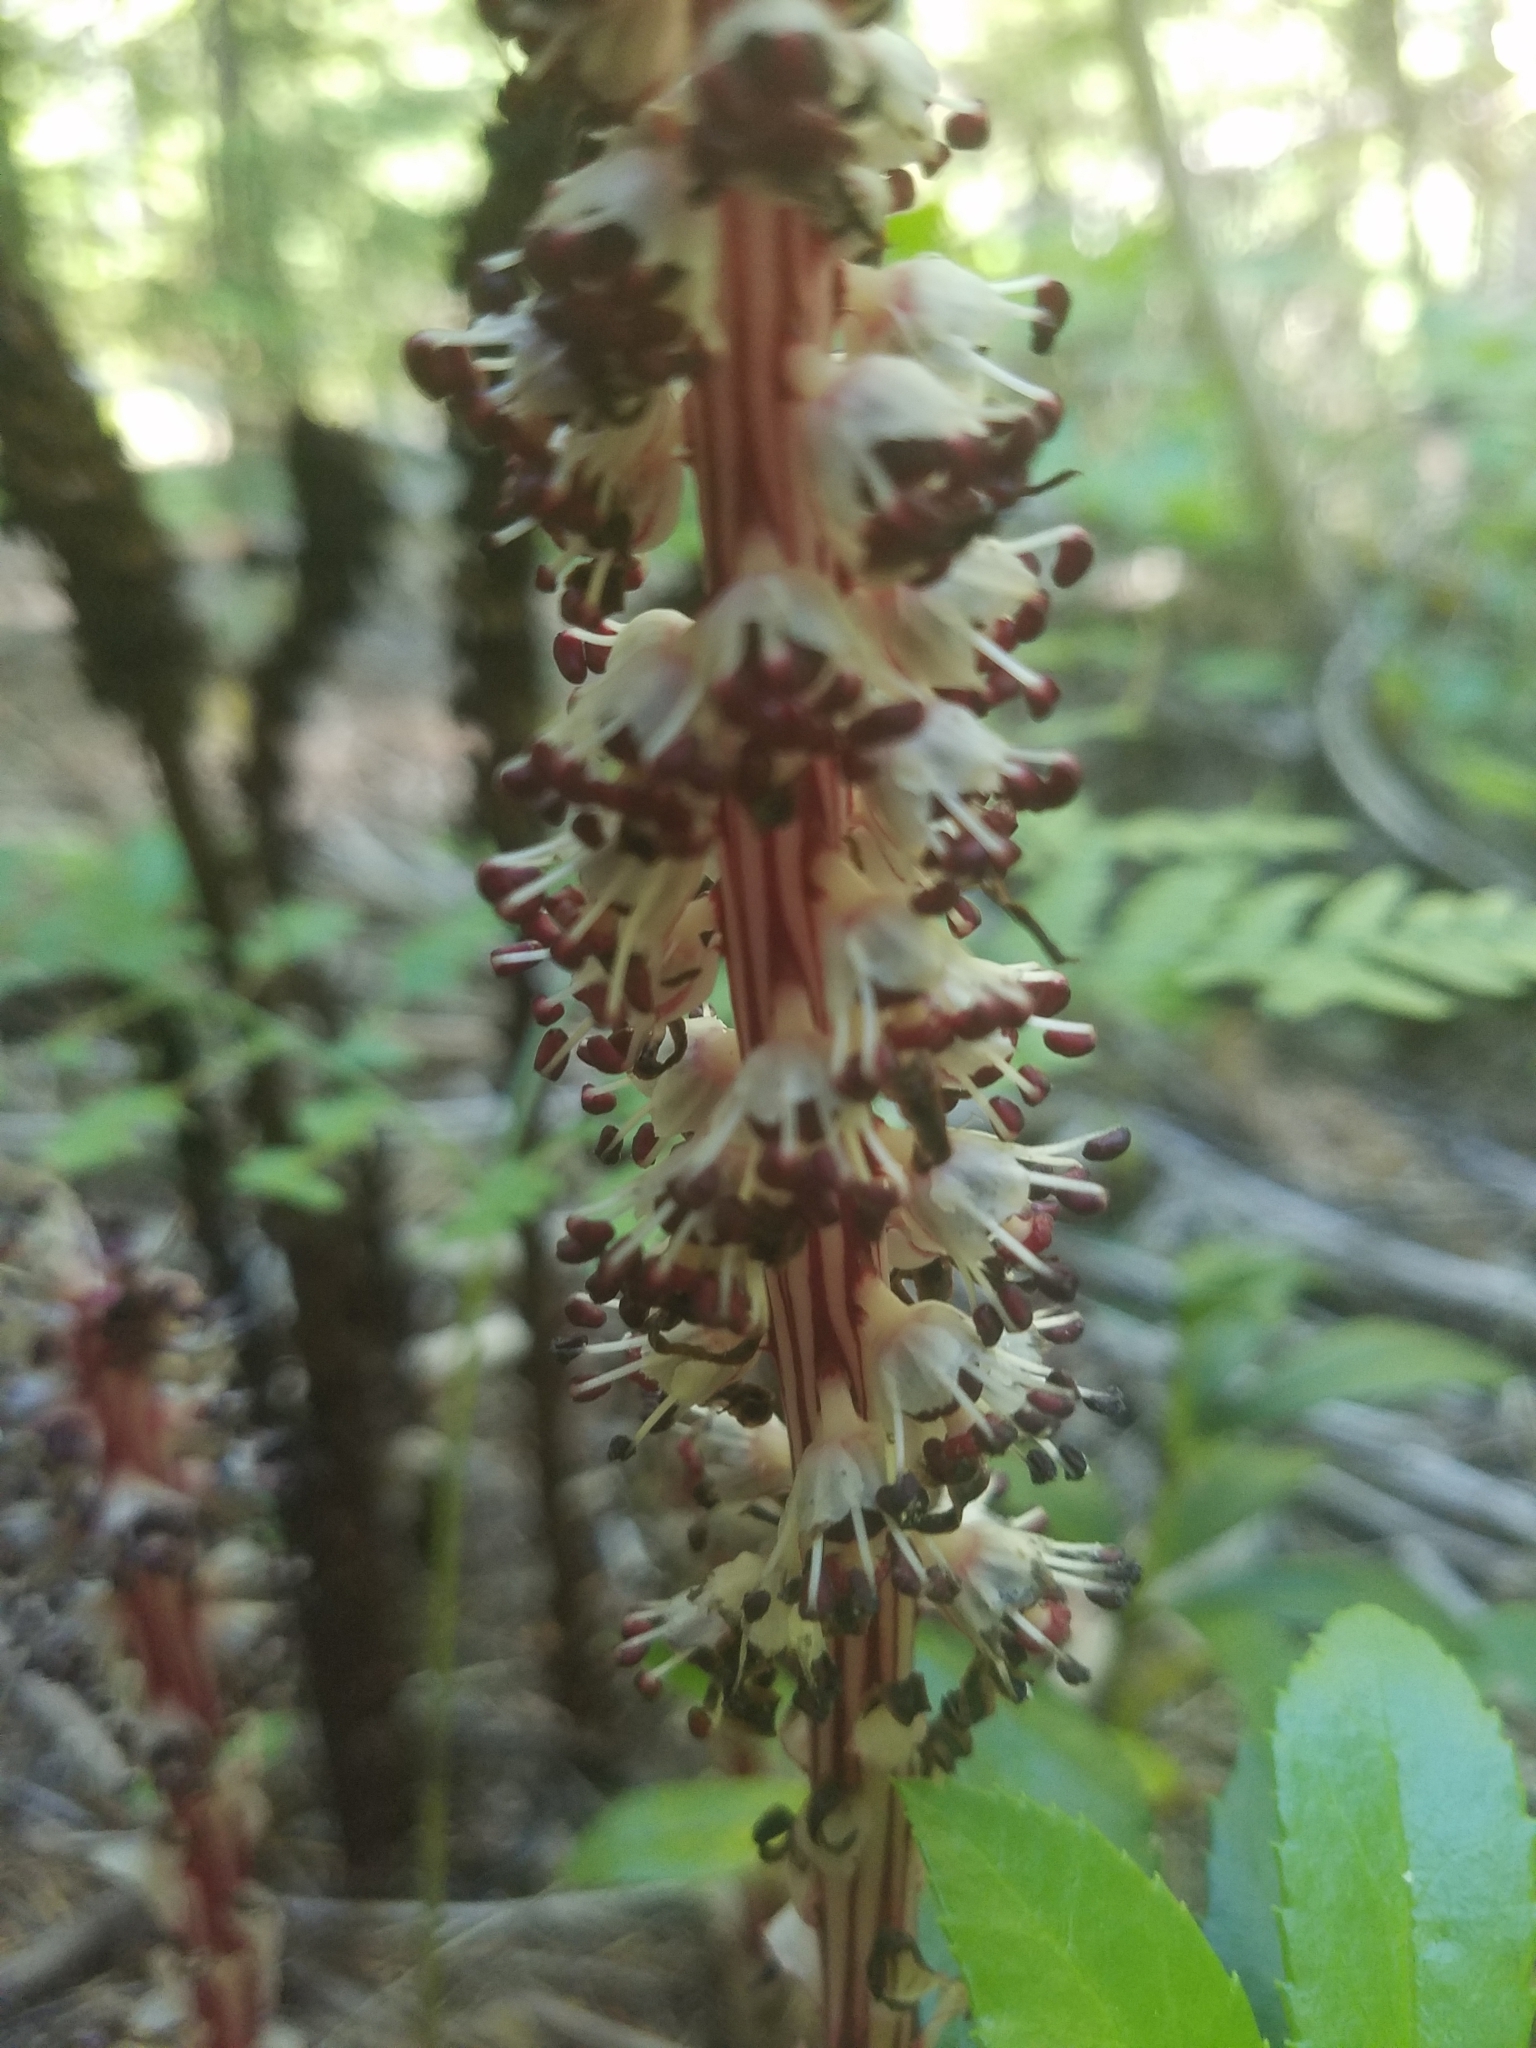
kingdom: Plantae
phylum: Tracheophyta
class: Magnoliopsida
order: Ericales
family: Ericaceae
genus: Allotropa
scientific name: Allotropa virgata
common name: Candy-striped allotropa
